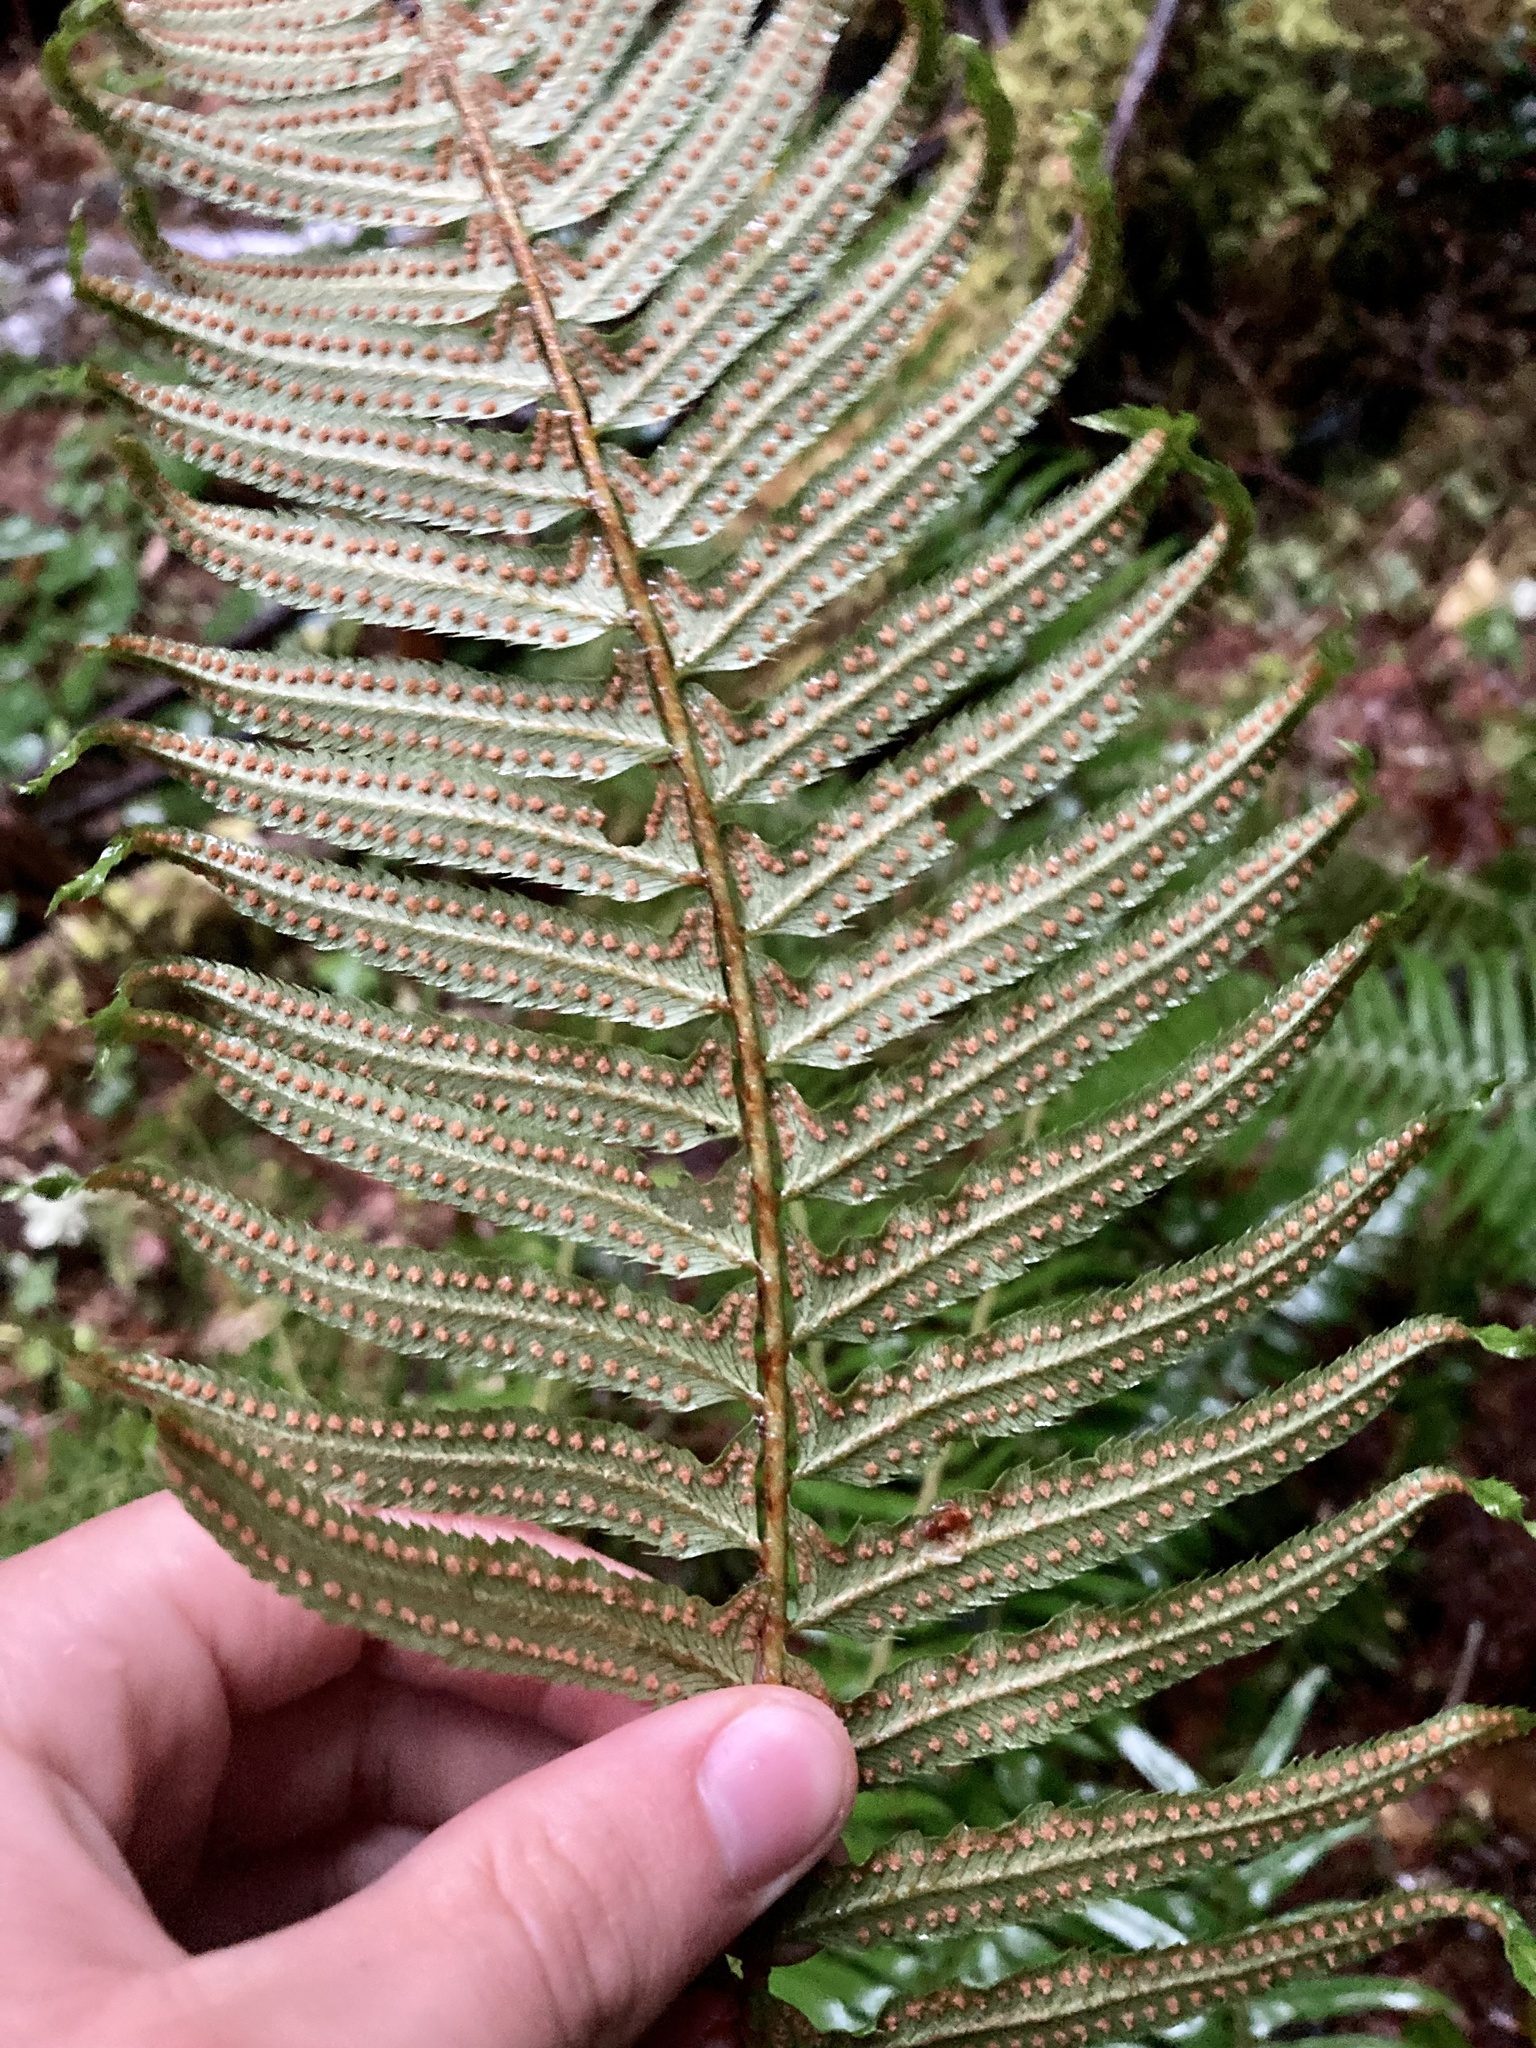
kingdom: Plantae
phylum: Tracheophyta
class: Polypodiopsida
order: Polypodiales
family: Dryopteridaceae
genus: Polystichum
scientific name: Polystichum munitum
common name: Western sword-fern
